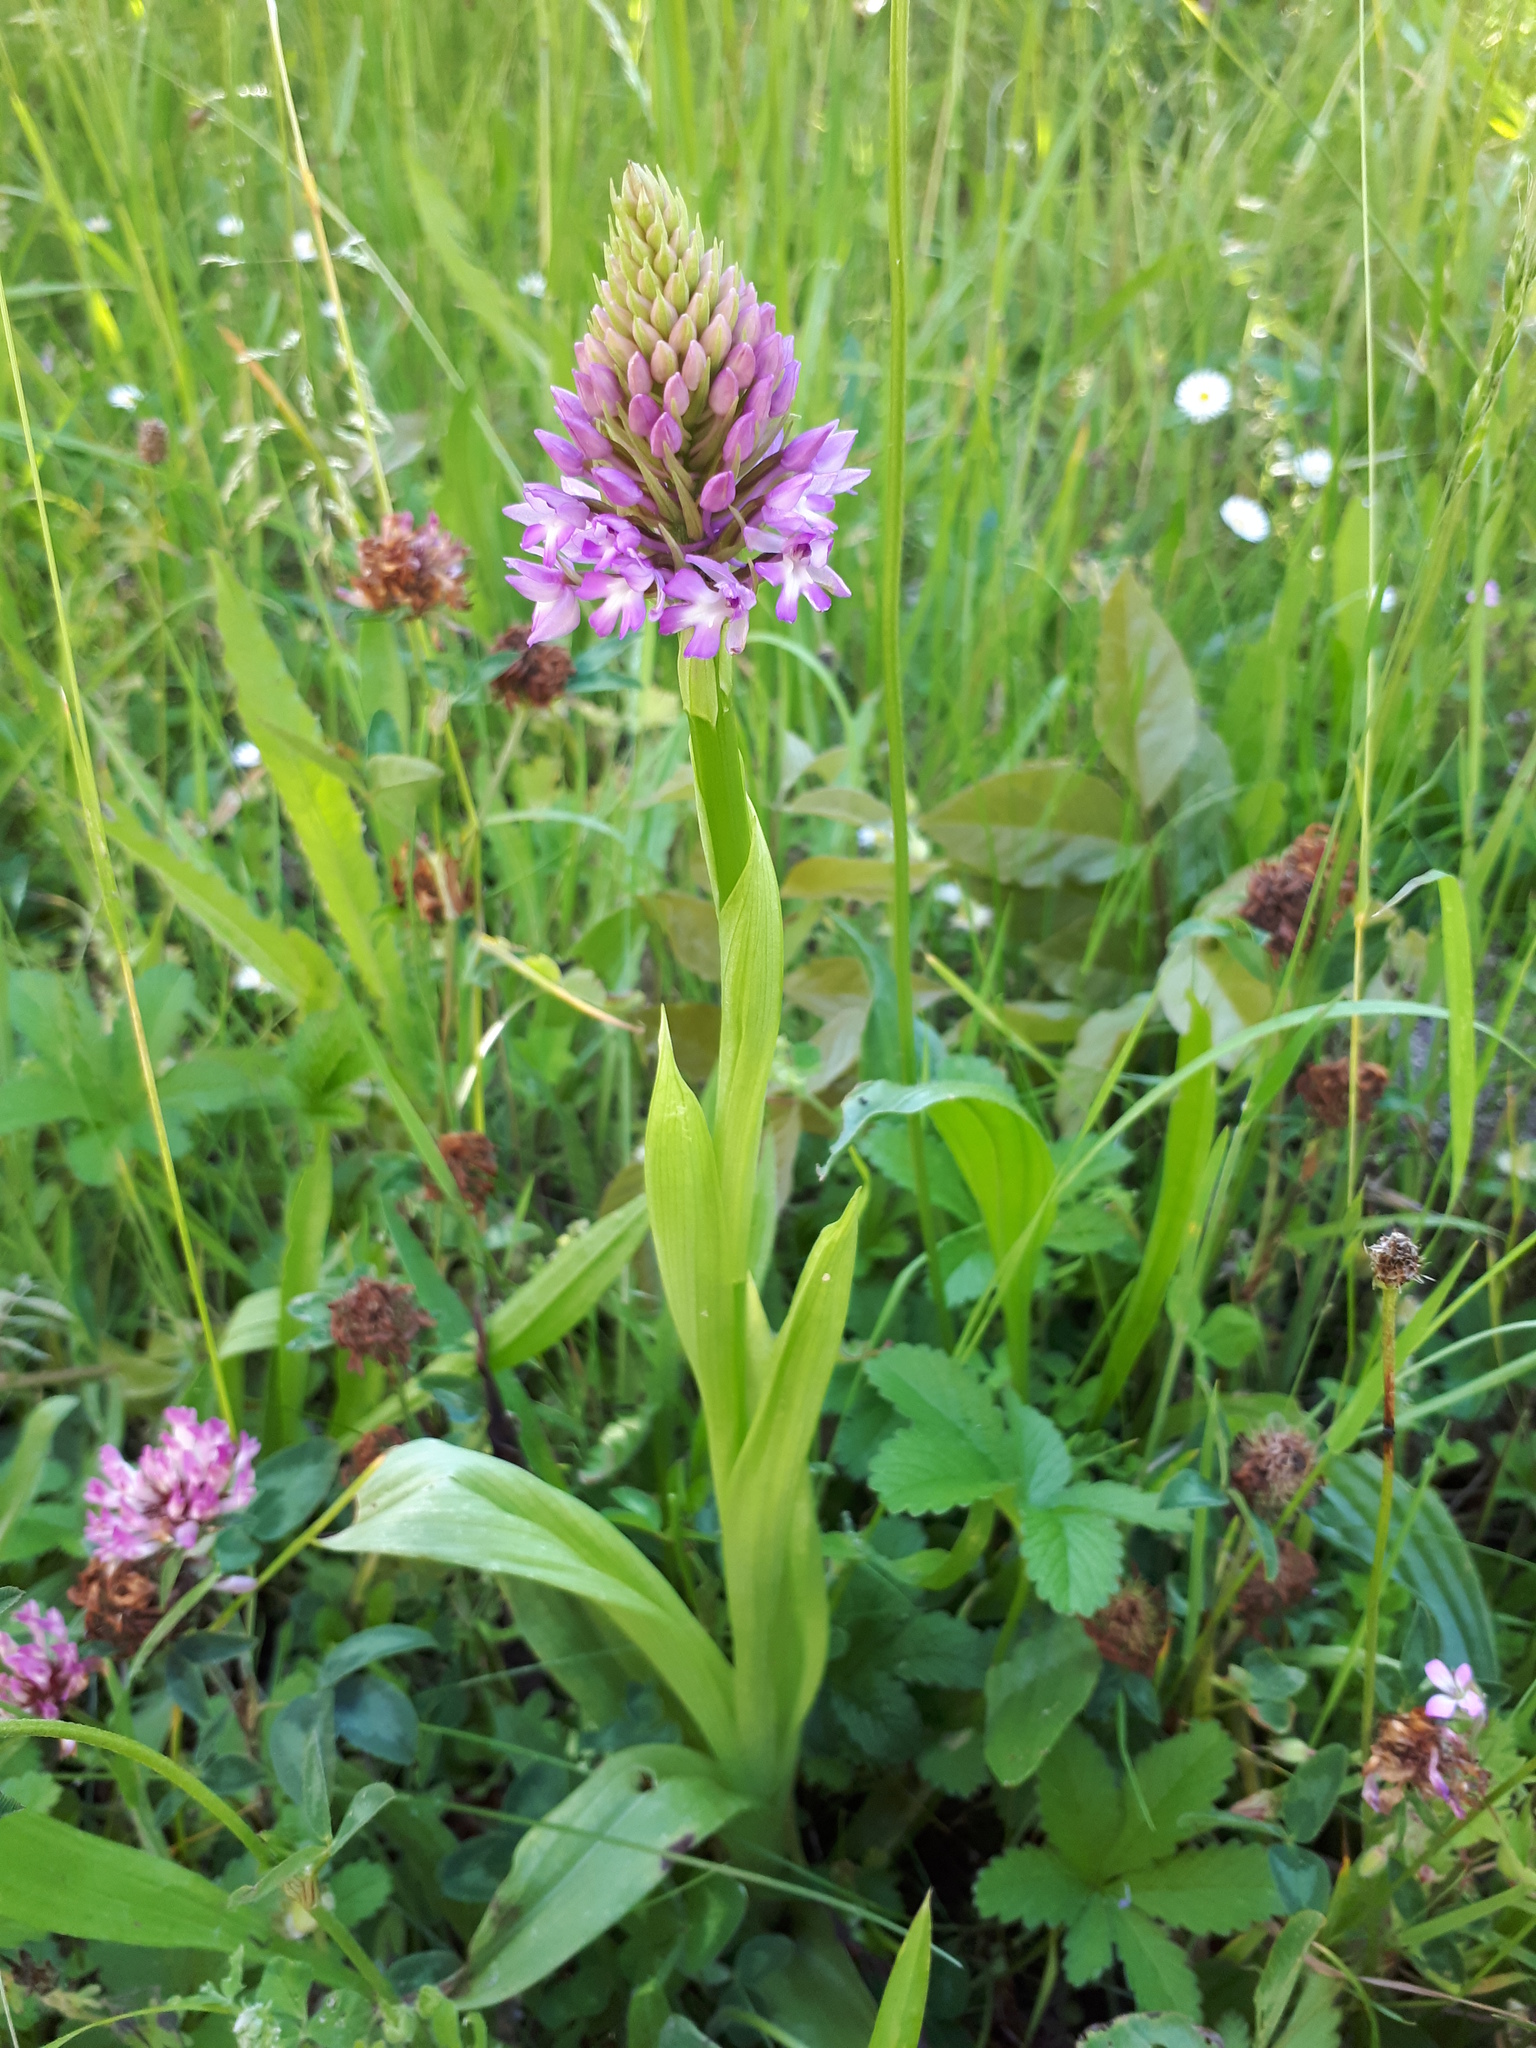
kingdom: Plantae
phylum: Tracheophyta
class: Liliopsida
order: Asparagales
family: Orchidaceae
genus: Anacamptis
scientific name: Anacamptis pyramidalis
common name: Pyramidal orchid
